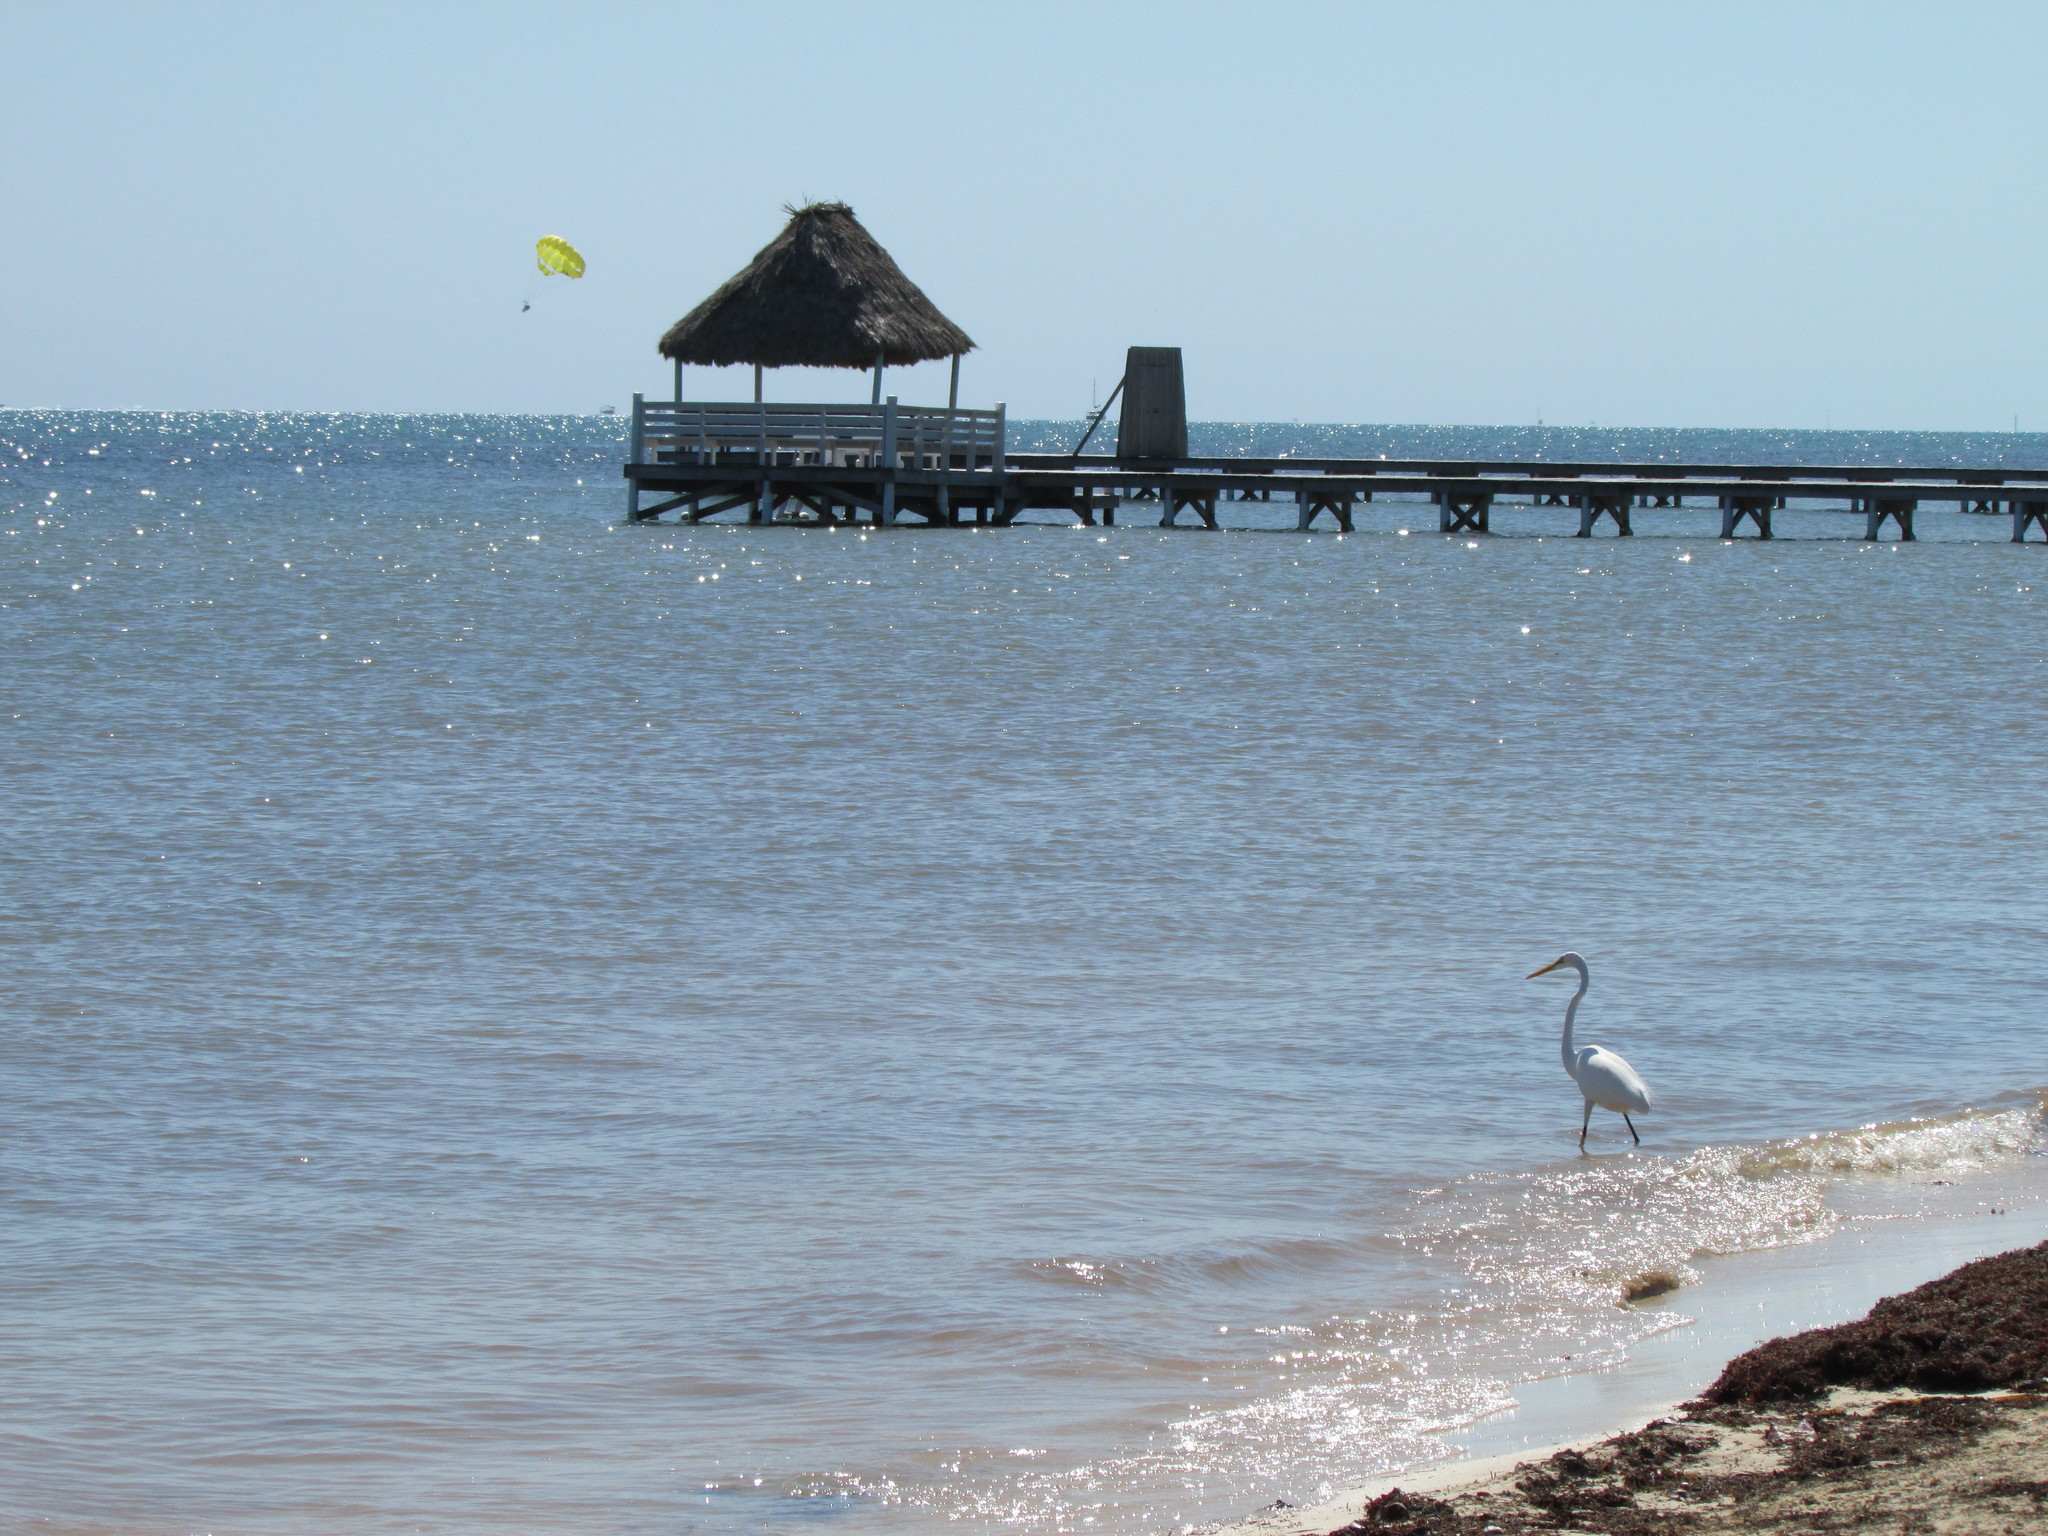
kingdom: Animalia
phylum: Chordata
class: Aves
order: Pelecaniformes
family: Ardeidae
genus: Ardea
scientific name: Ardea alba
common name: Great egret
